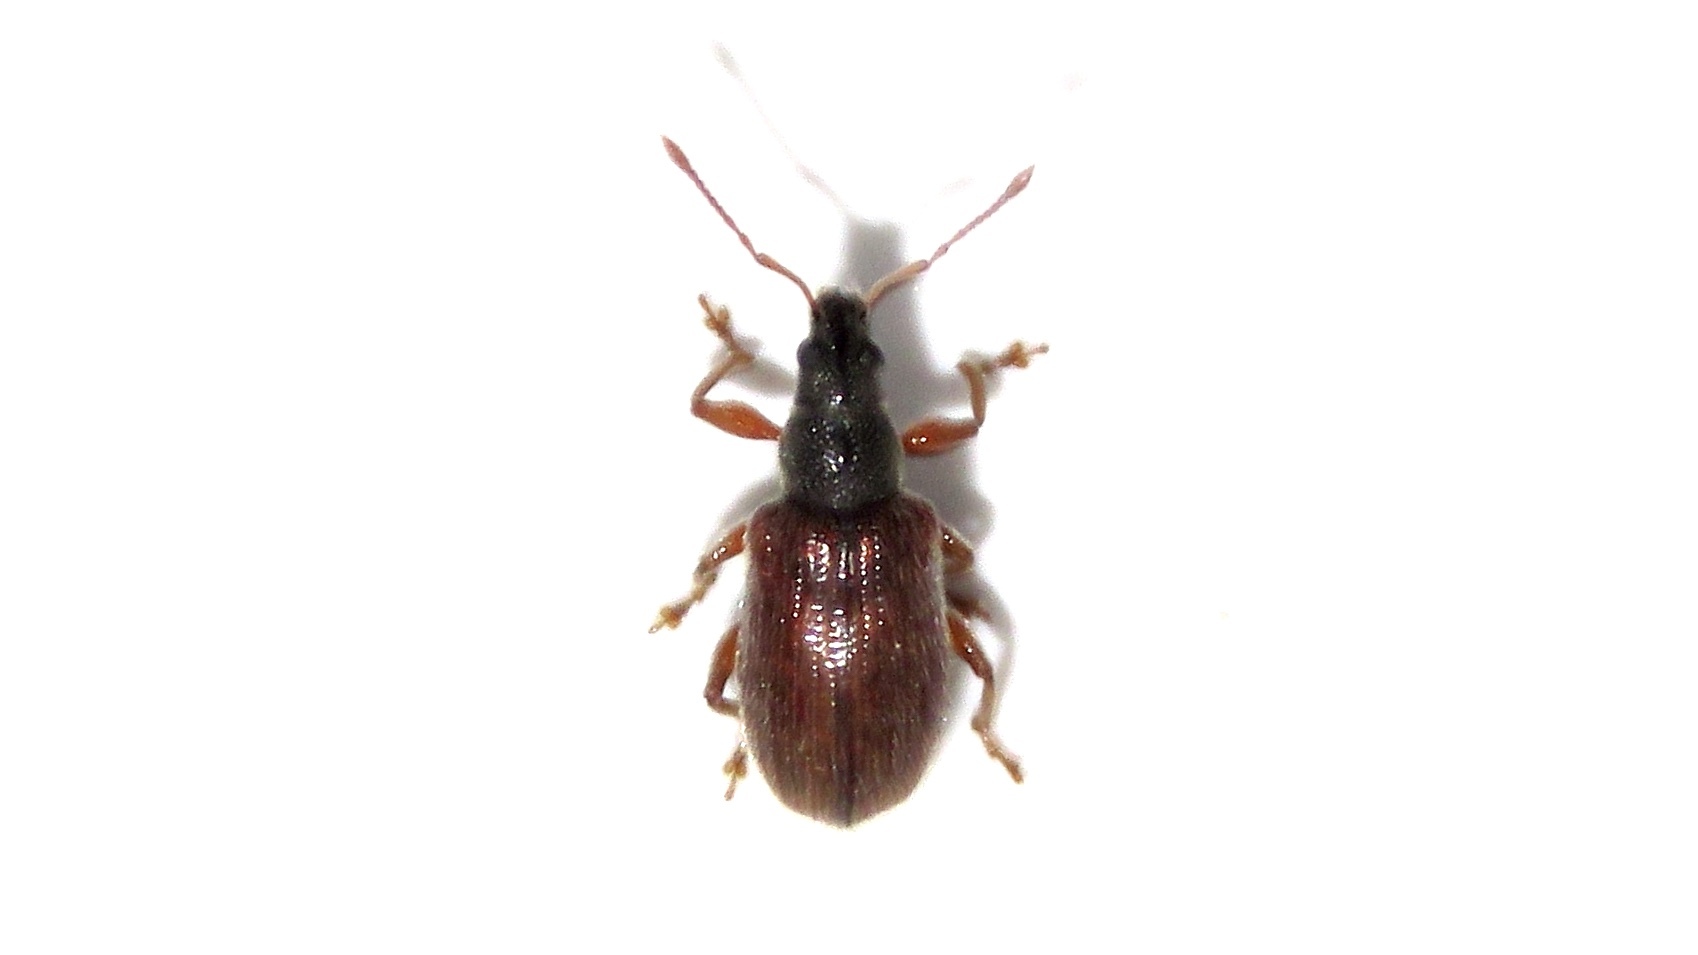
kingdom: Animalia
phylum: Arthropoda
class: Insecta
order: Coleoptera
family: Curculionidae
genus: Phyllobius
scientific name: Phyllobius oblongus
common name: Brown leaf weevil
